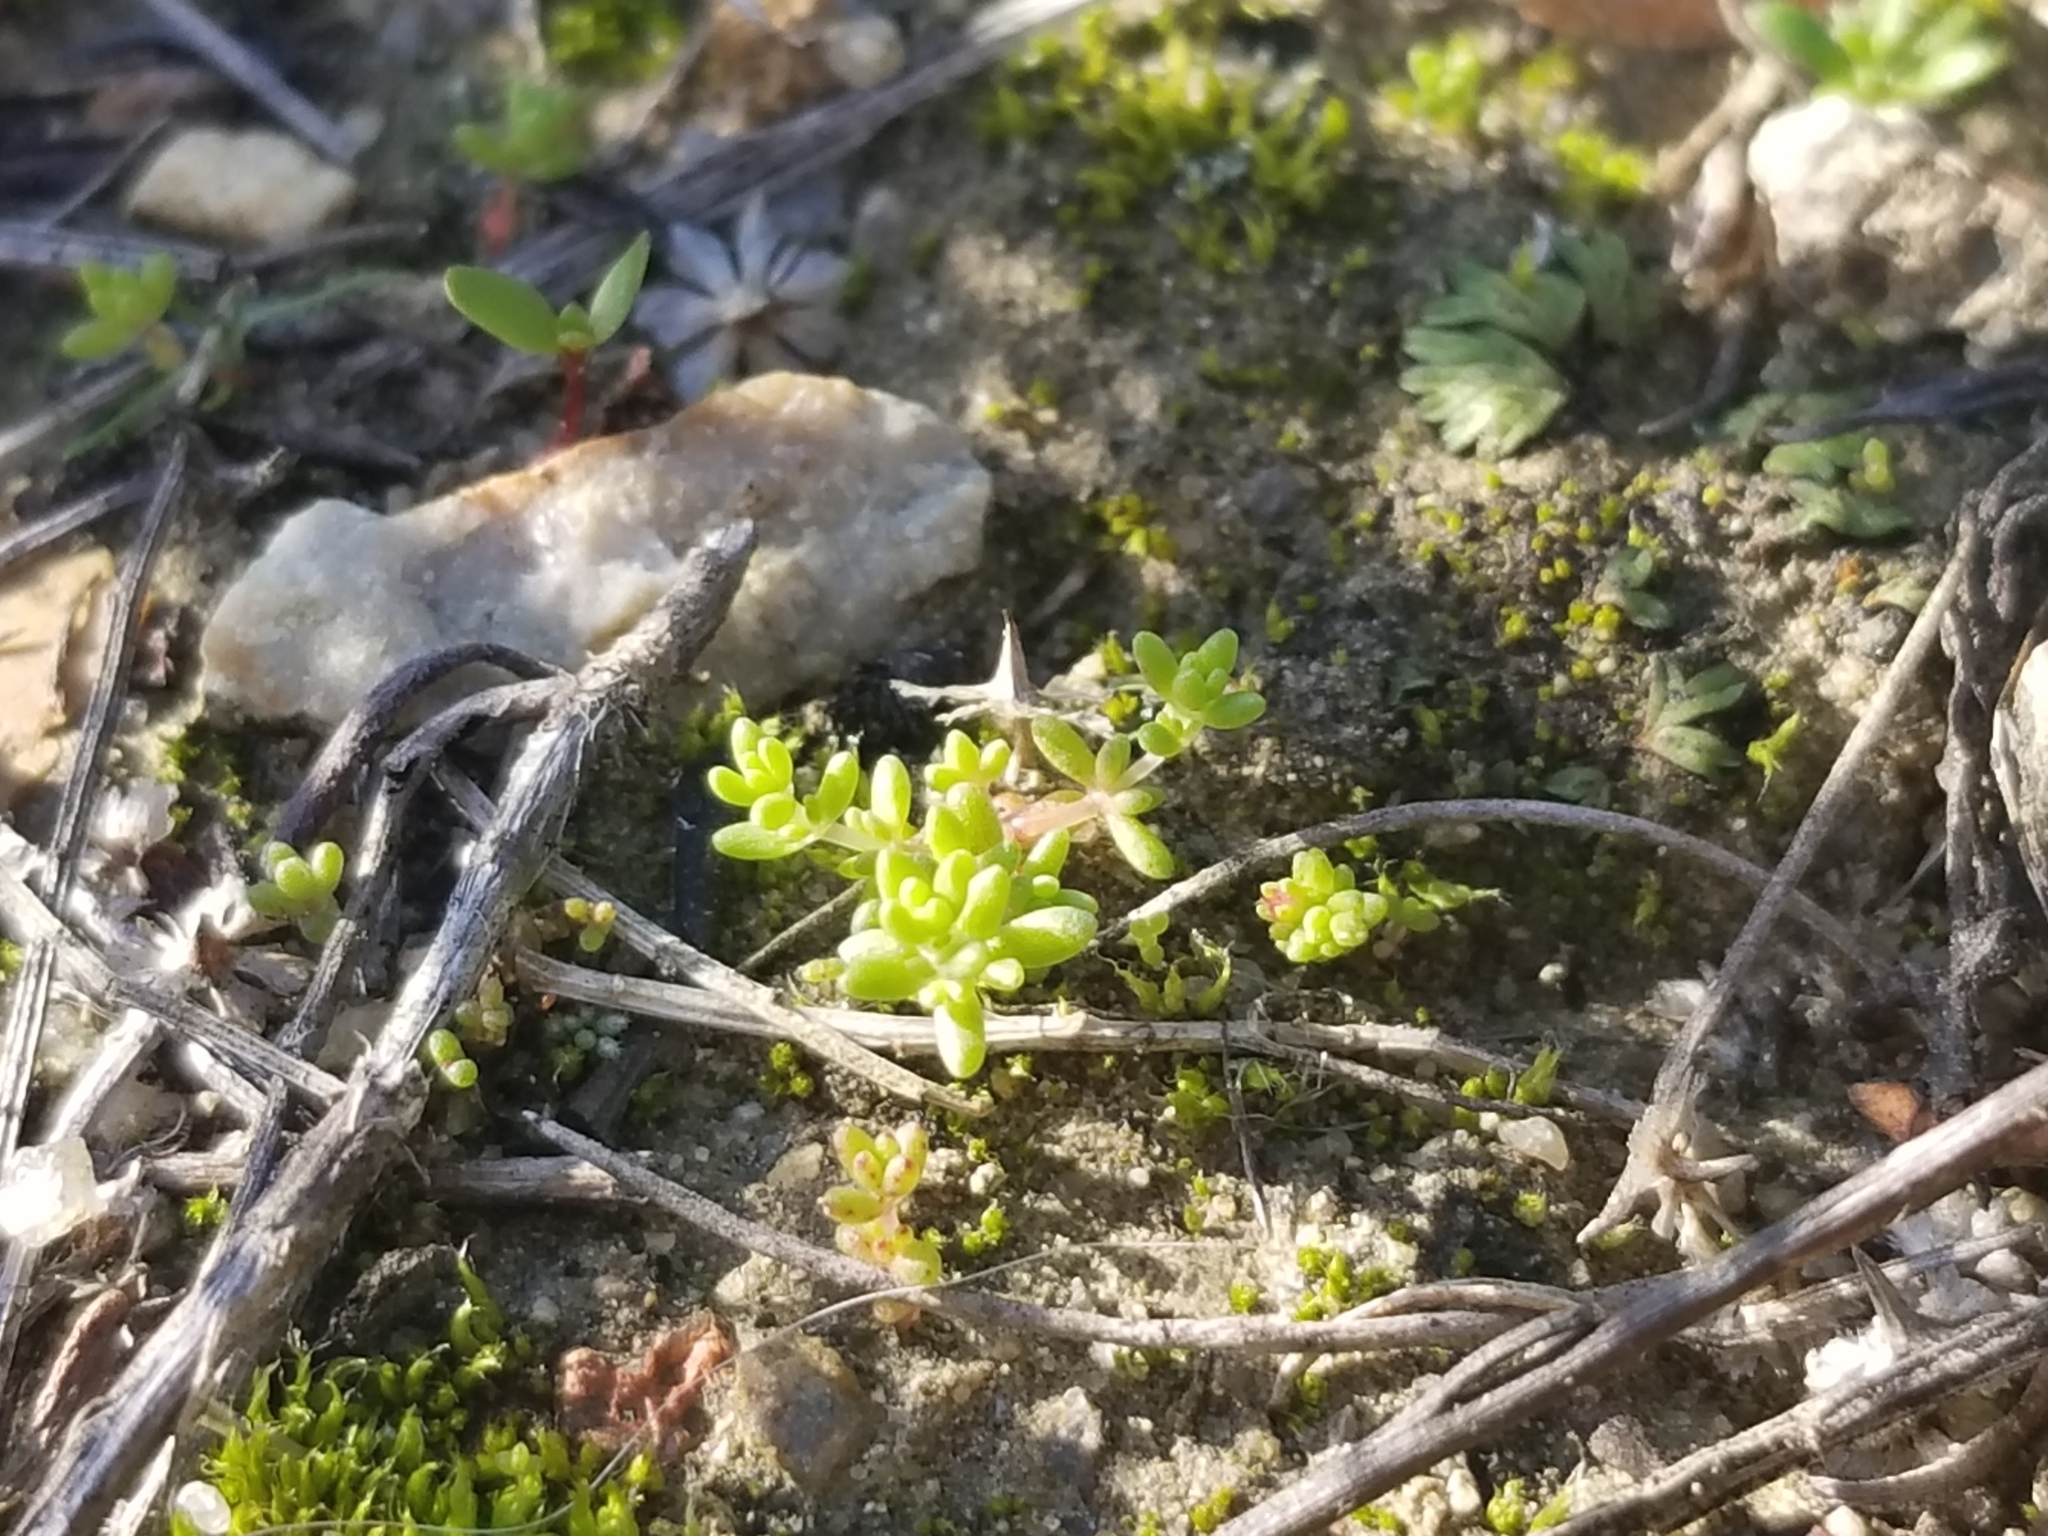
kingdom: Plantae
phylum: Tracheophyta
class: Magnoliopsida
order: Saxifragales
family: Crassulaceae
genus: Crassula
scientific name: Crassula connata
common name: Erect pygmyweed
